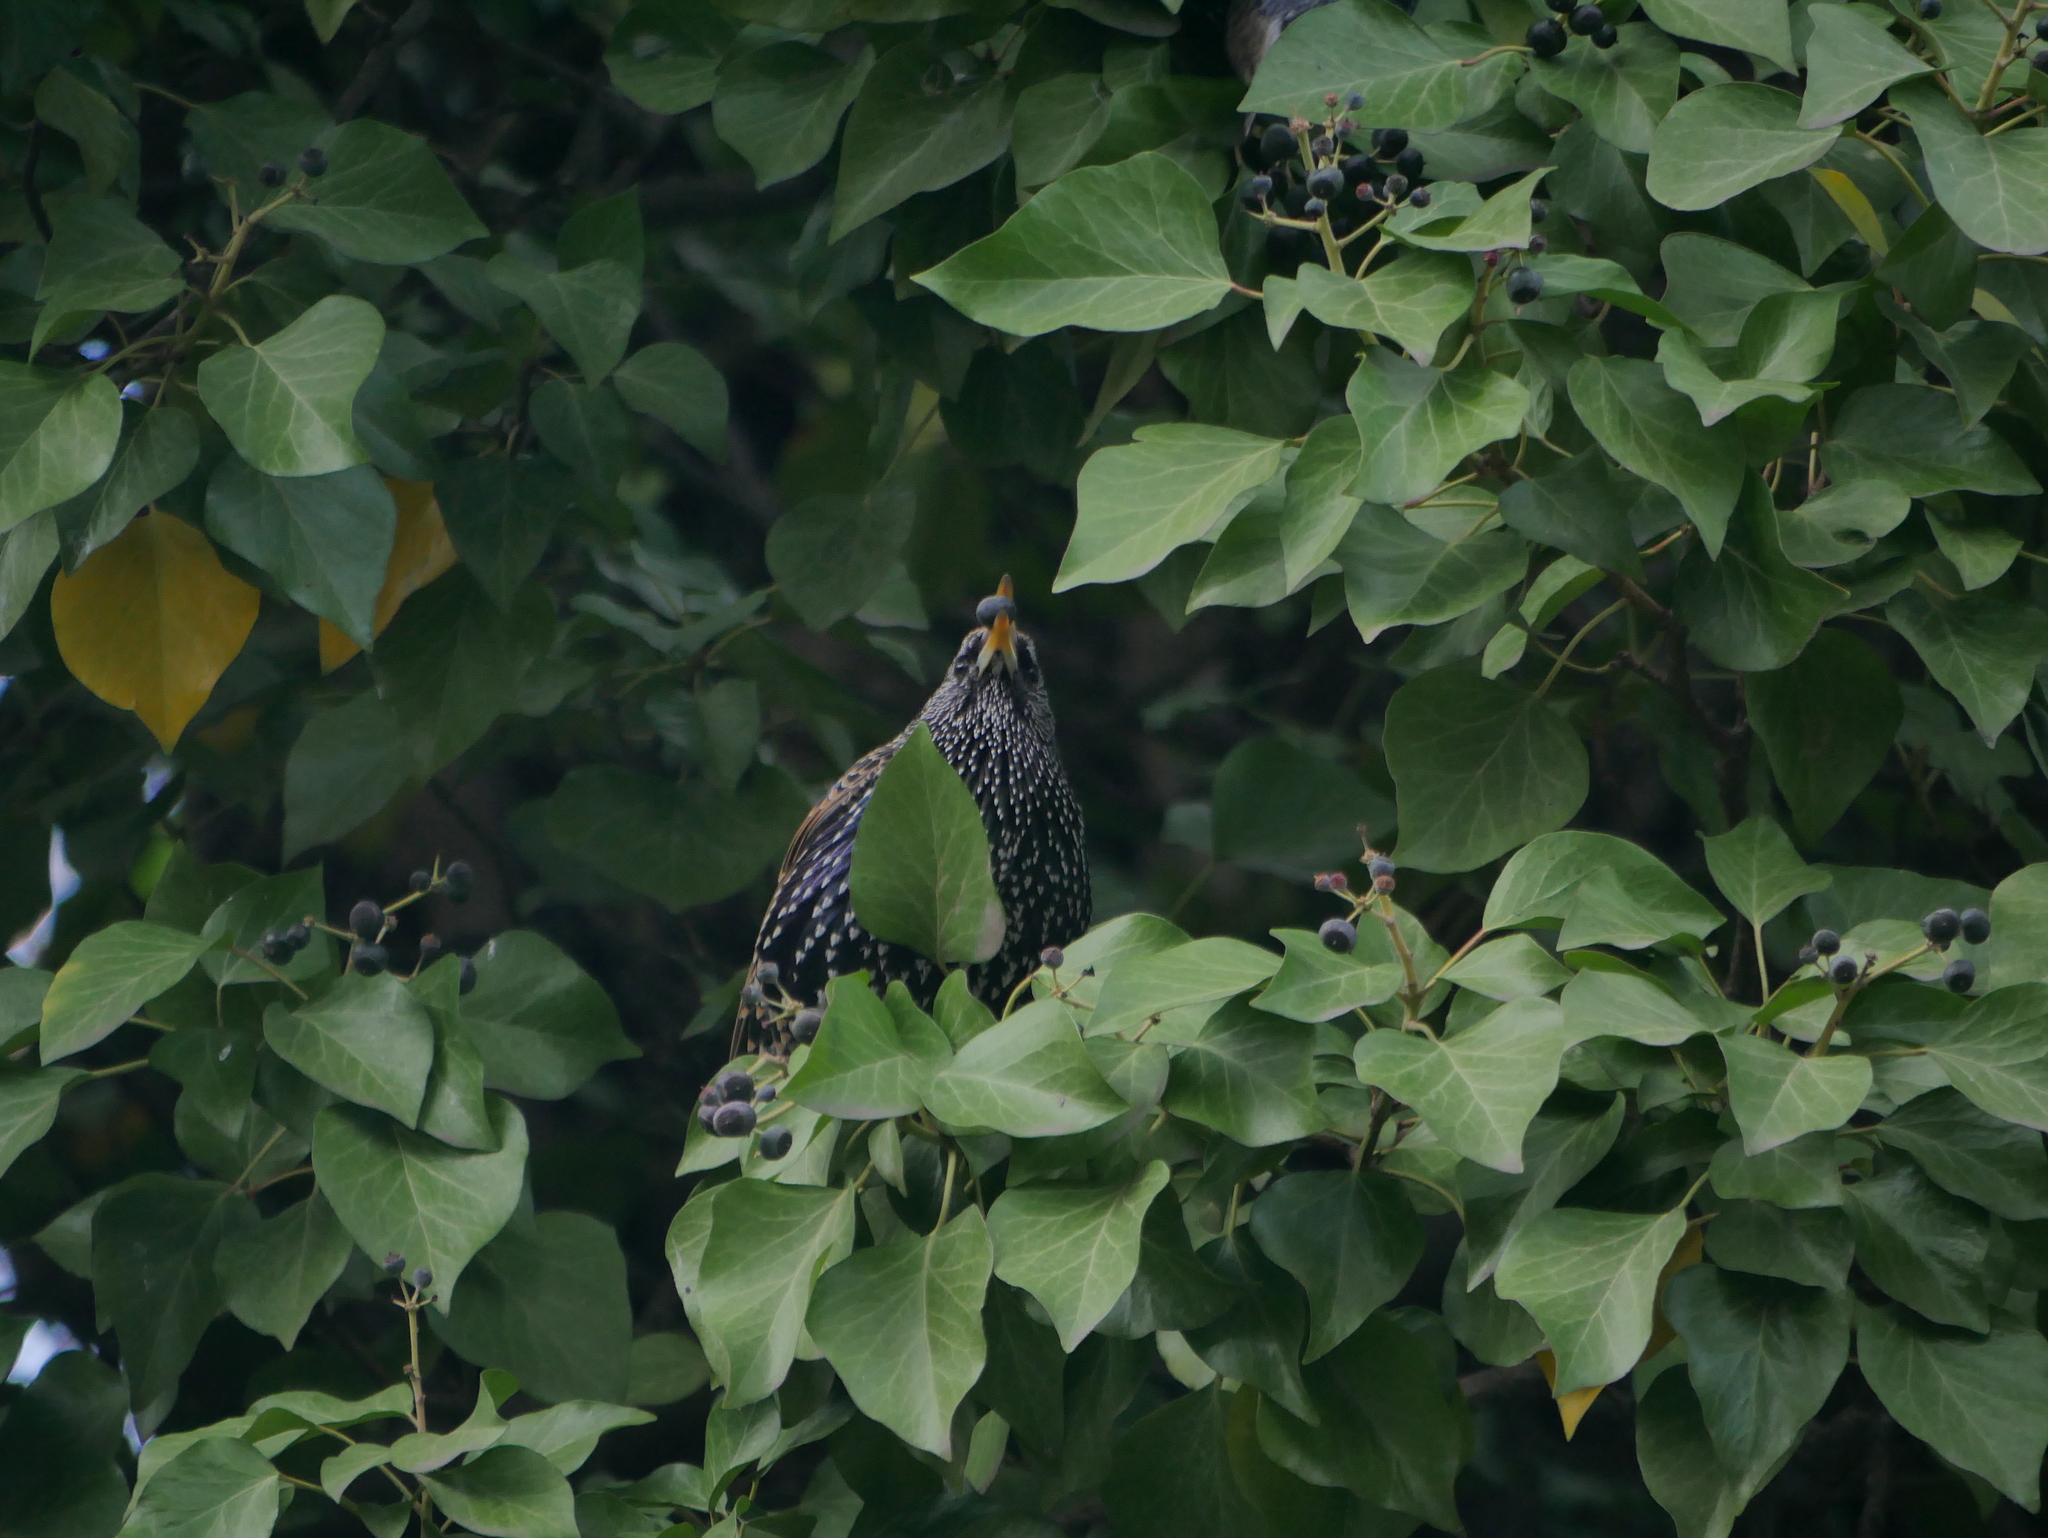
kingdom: Animalia
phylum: Chordata
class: Aves
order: Passeriformes
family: Sturnidae
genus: Sturnus
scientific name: Sturnus vulgaris
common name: Common starling
